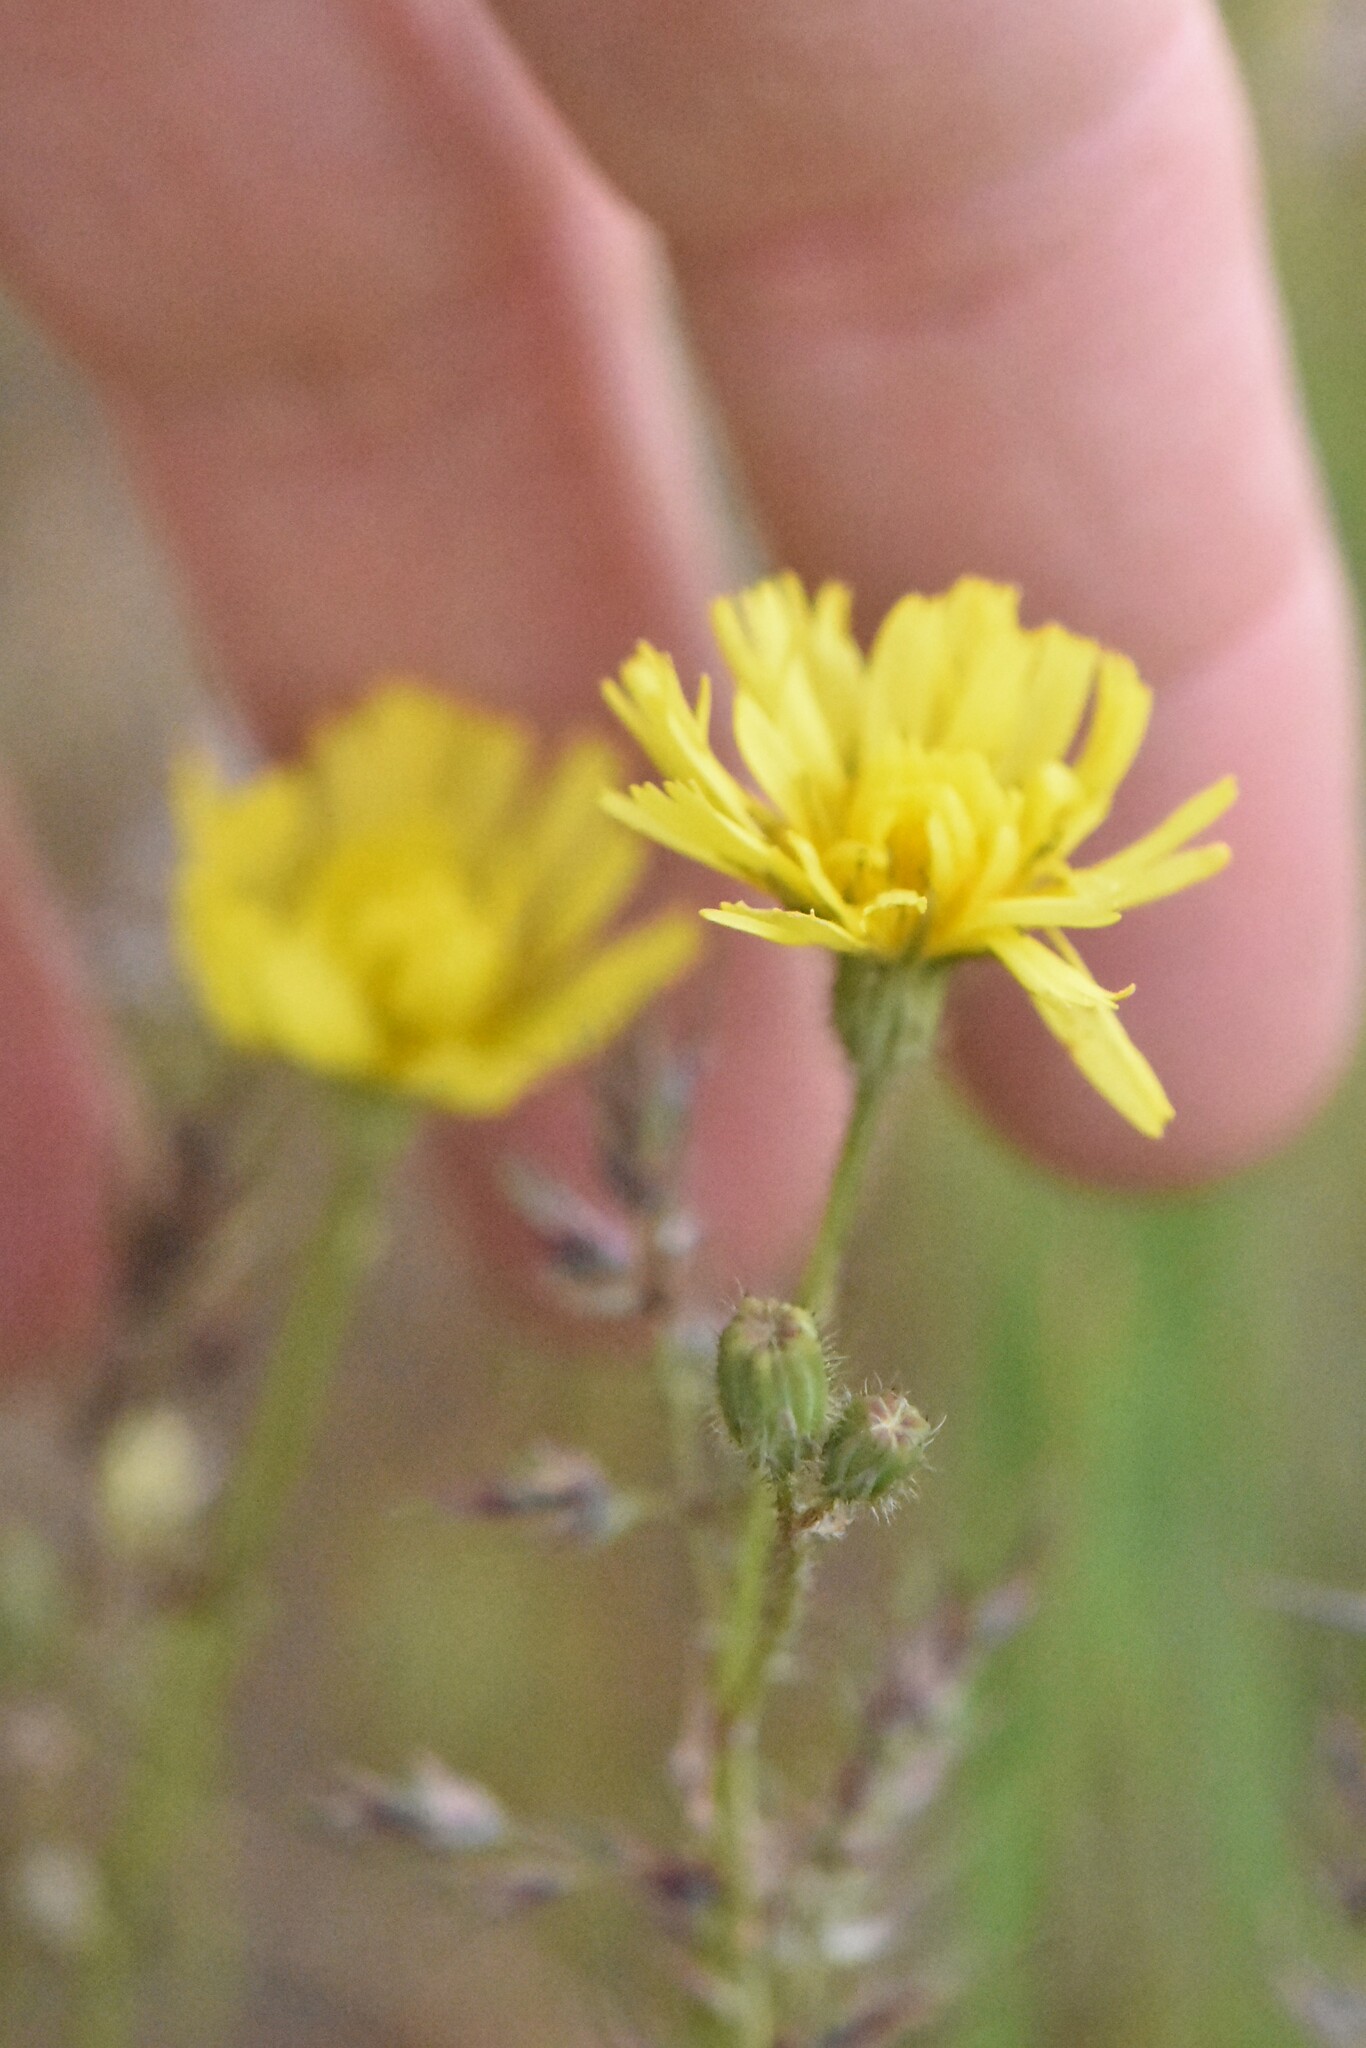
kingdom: Plantae
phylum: Tracheophyta
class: Magnoliopsida
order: Asterales
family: Asteraceae
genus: Crepis
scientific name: Crepis sancta
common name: Hawk's-beard
